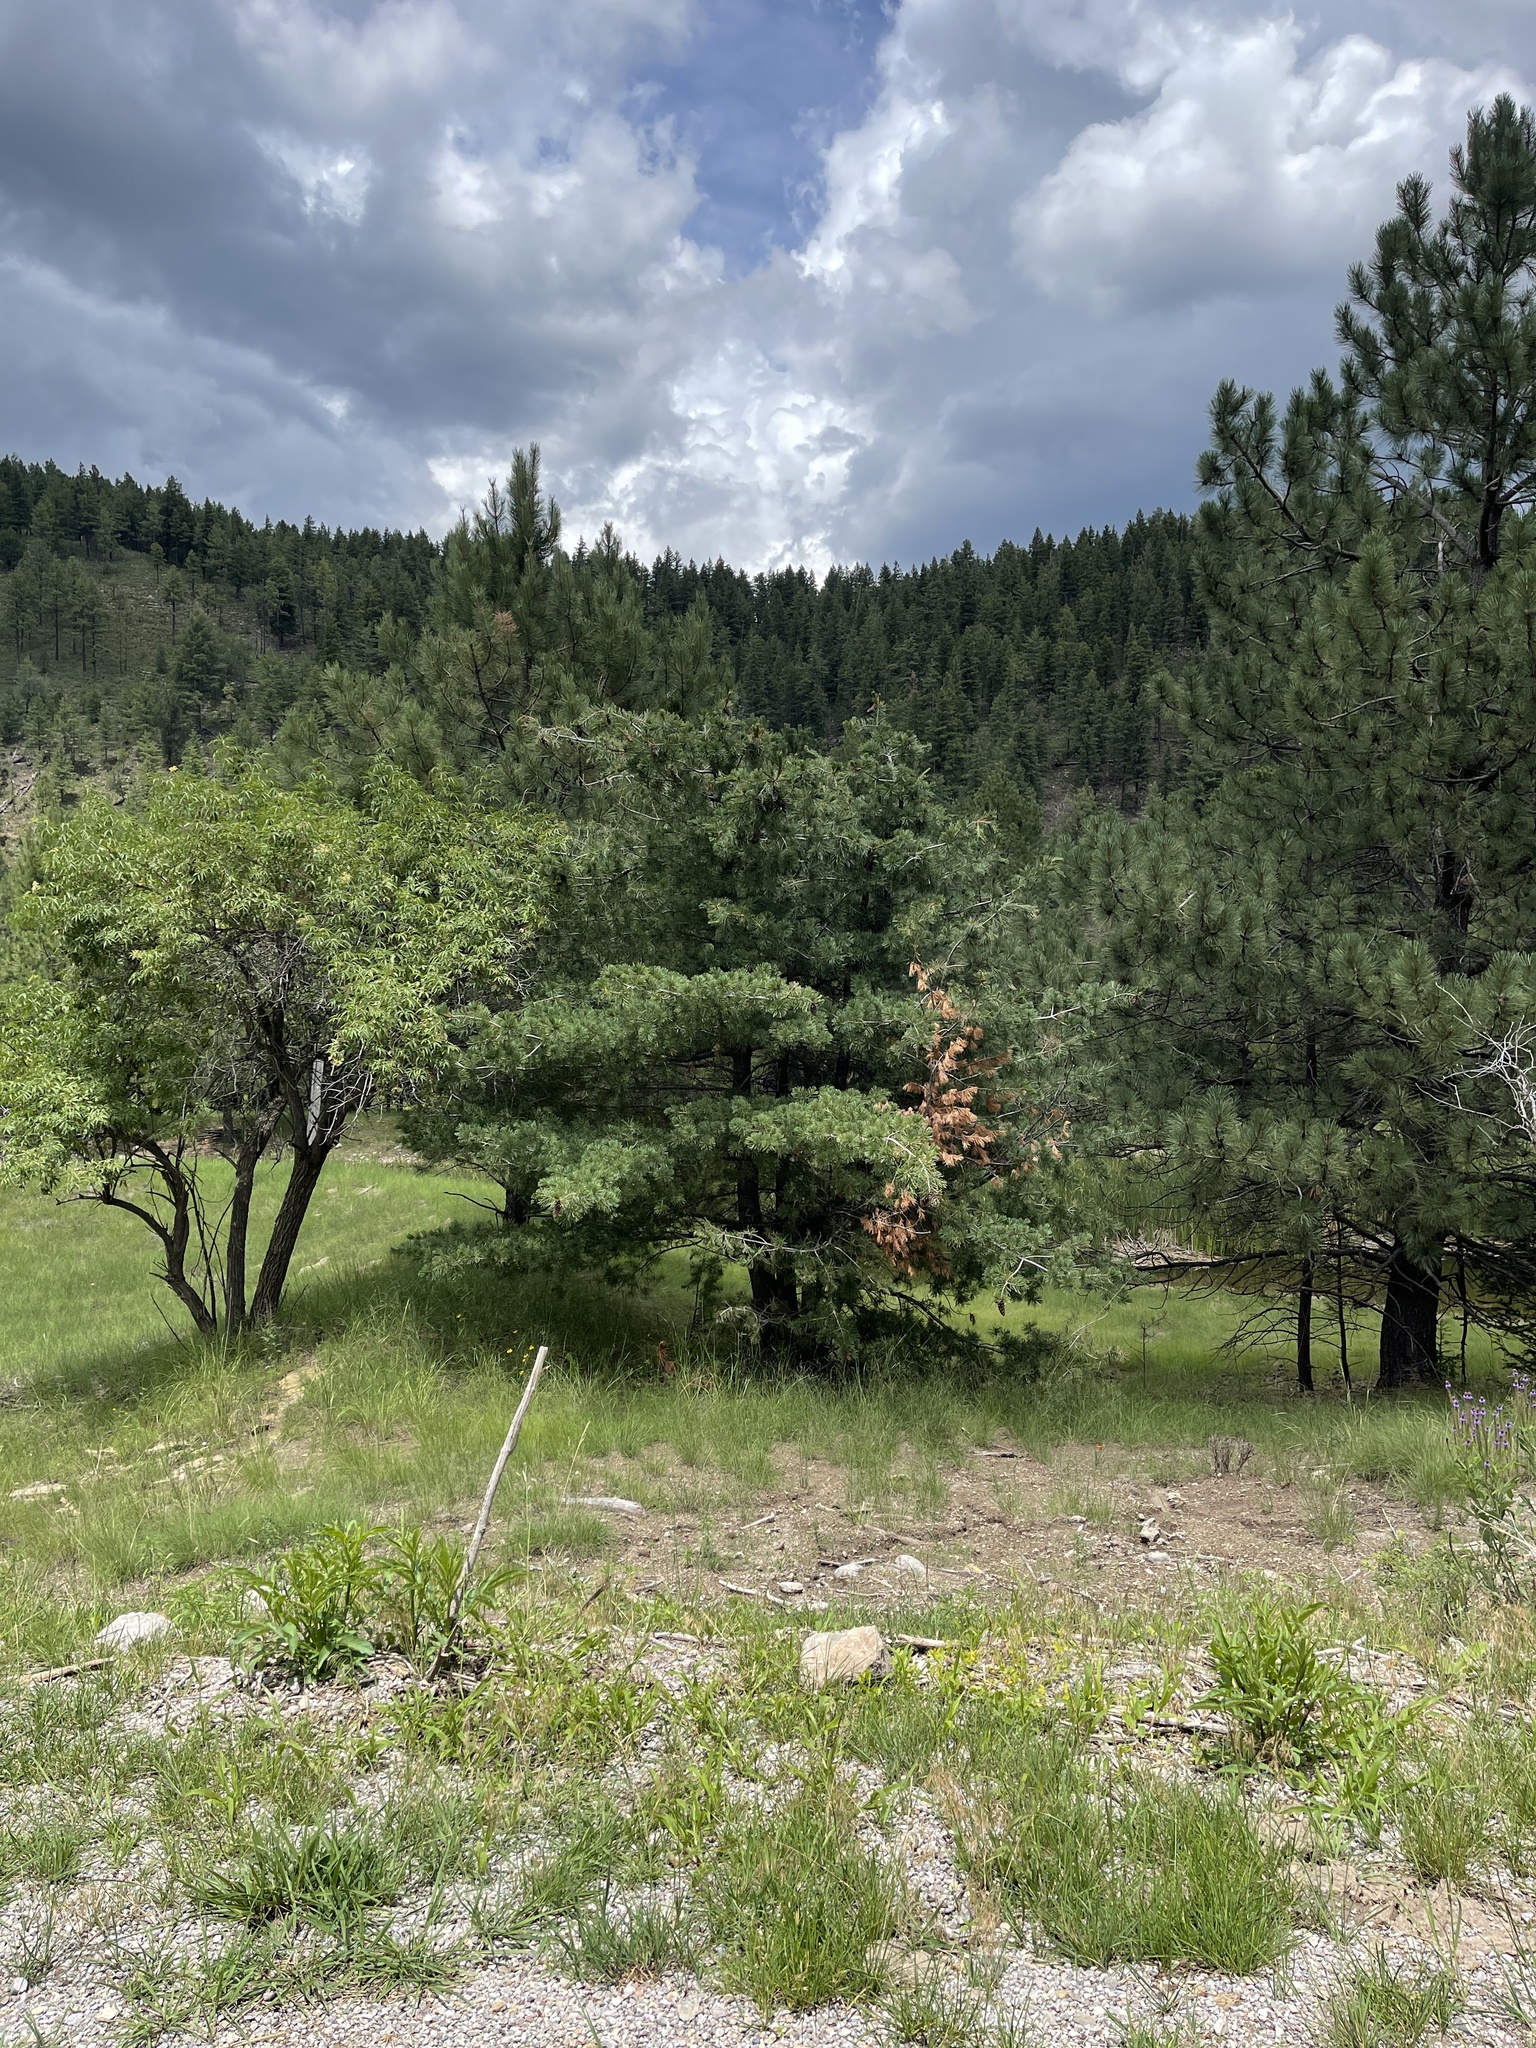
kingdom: Plantae
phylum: Tracheophyta
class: Pinopsida
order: Pinales
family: Pinaceae
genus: Pinus
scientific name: Pinus strobiformis
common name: Southwestern white pine
